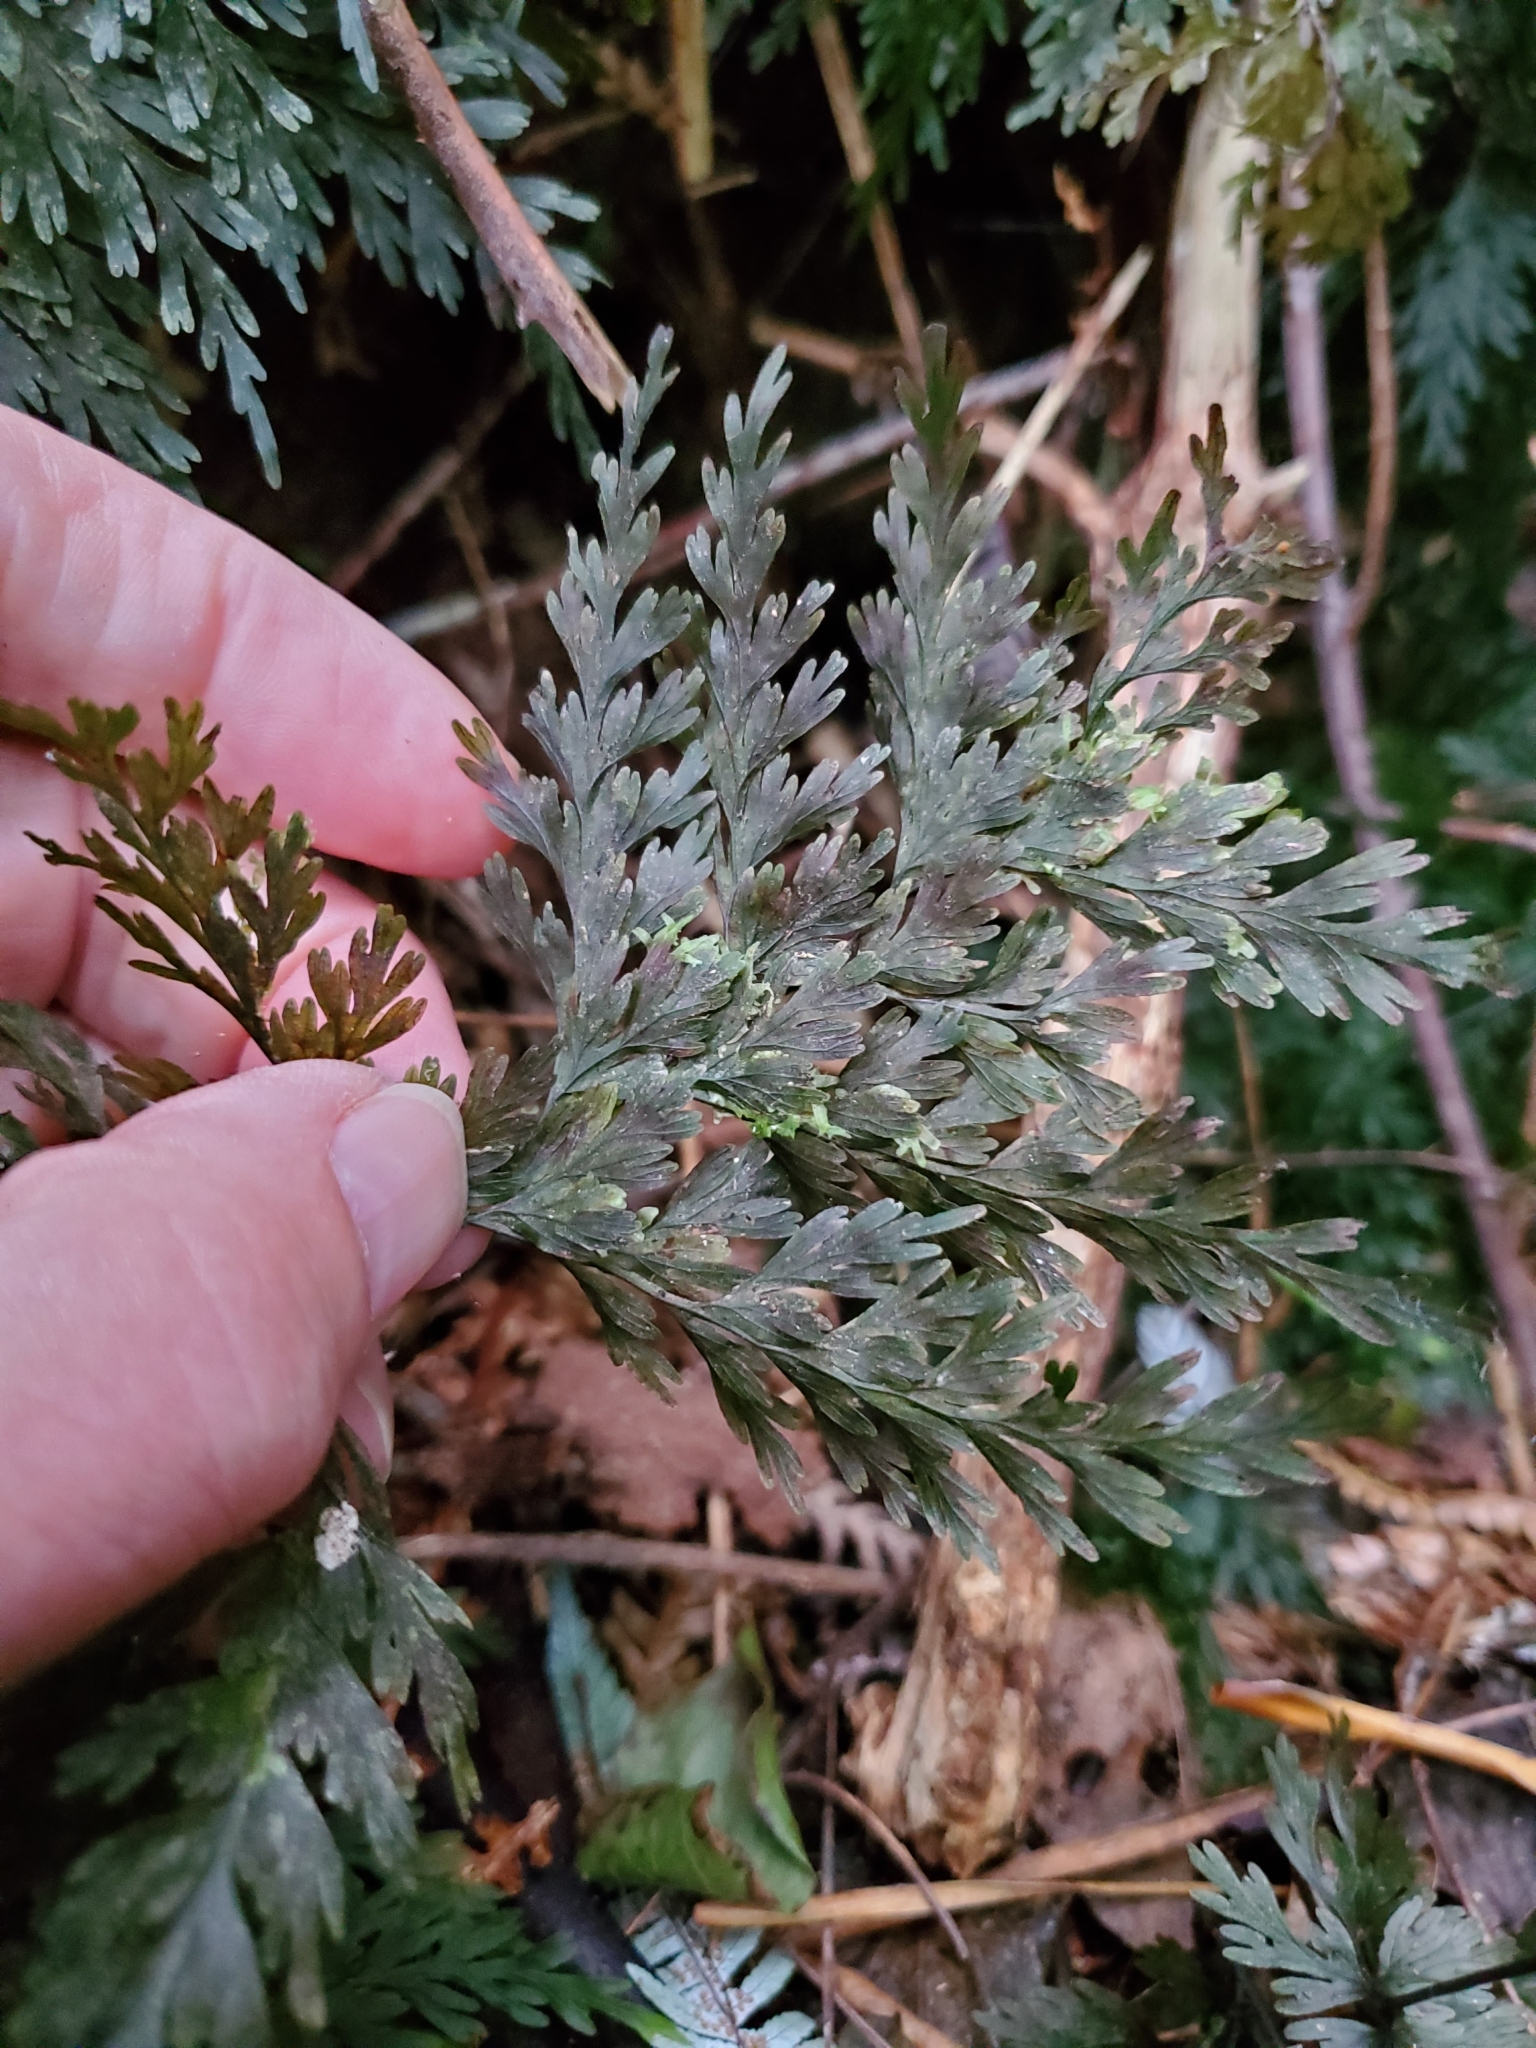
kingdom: Plantae
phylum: Tracheophyta
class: Polypodiopsida
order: Hymenophyllales
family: Hymenophyllaceae
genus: Hymenophyllum
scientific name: Hymenophyllum demissum
